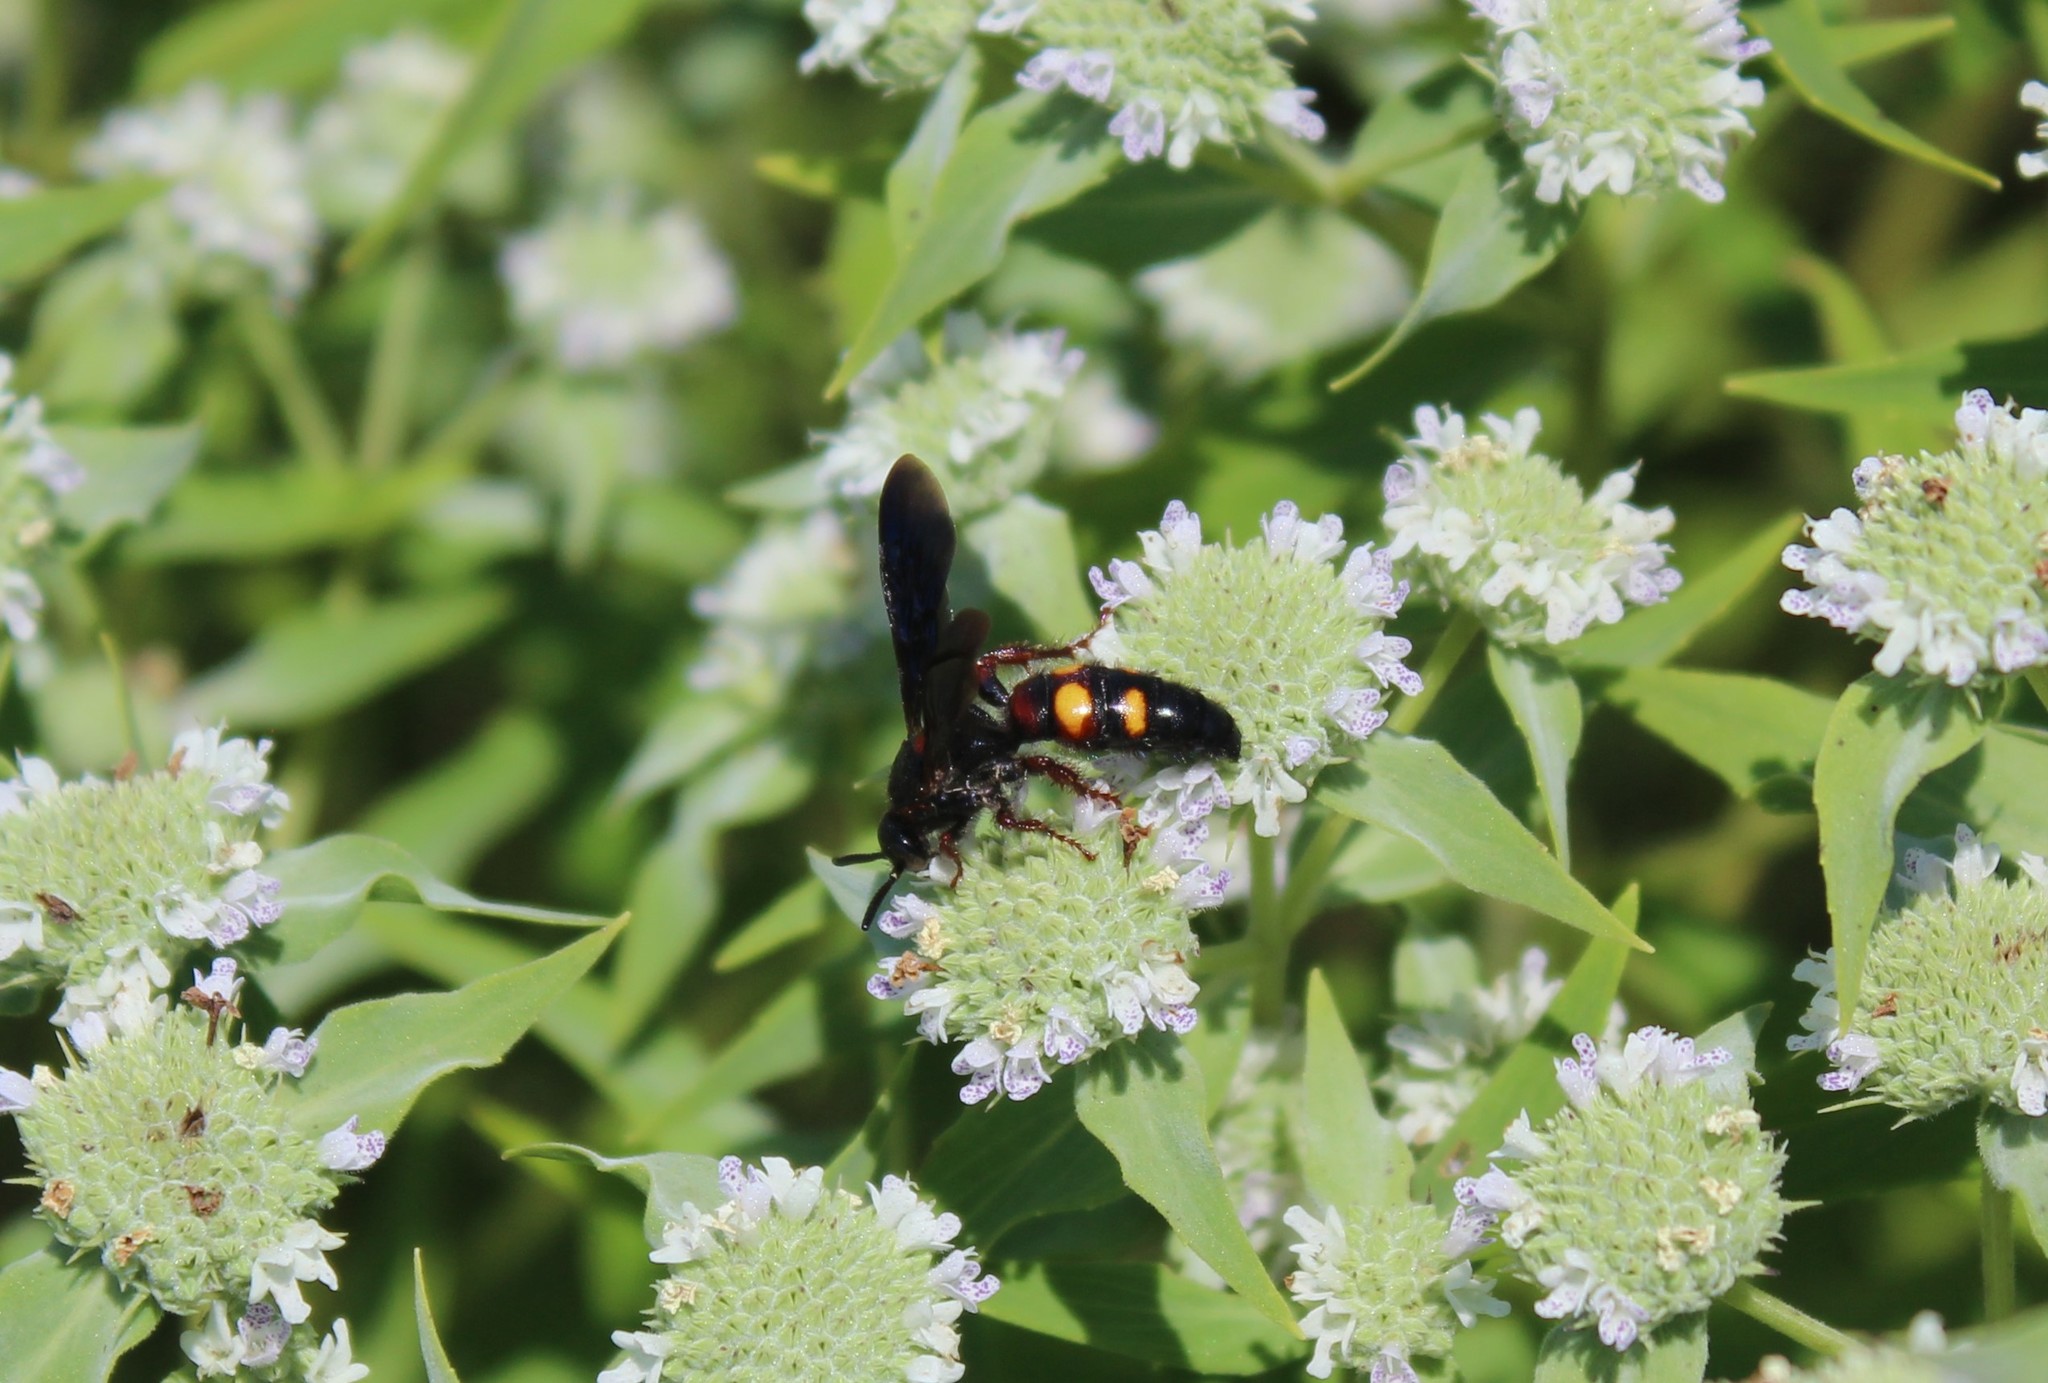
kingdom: Animalia
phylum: Arthropoda
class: Insecta
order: Hymenoptera
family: Scoliidae
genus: Scolia
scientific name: Scolia nobilitata
